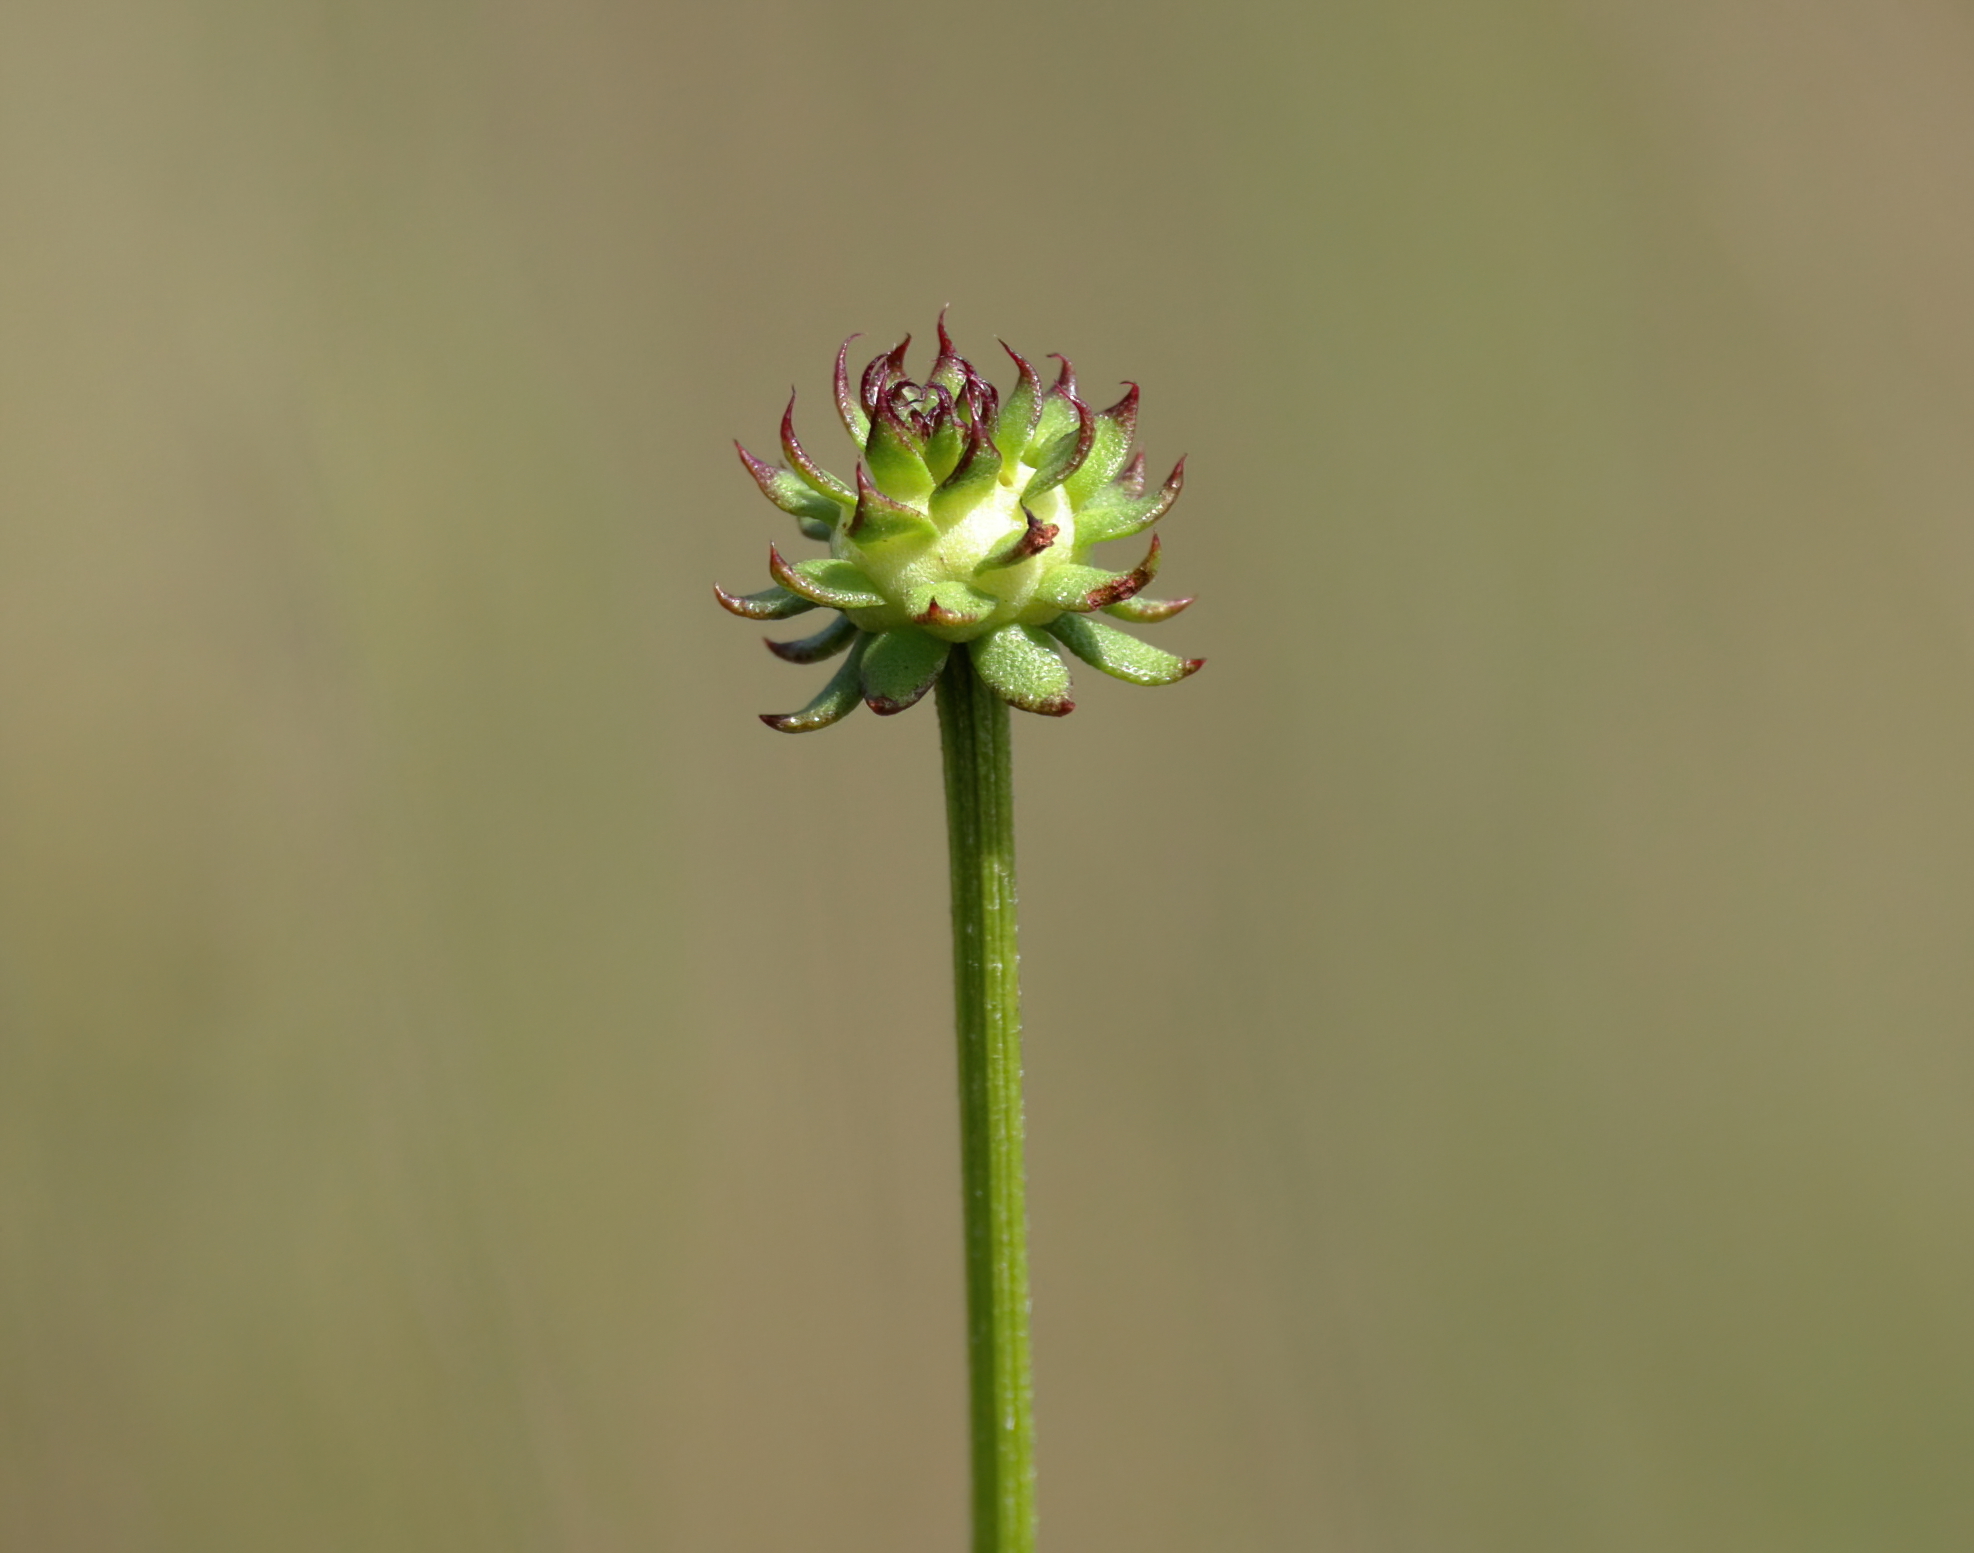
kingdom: Plantae
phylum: Tracheophyta
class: Magnoliopsida
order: Asterales
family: Asteraceae
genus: Balduina
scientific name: Balduina uniflora
